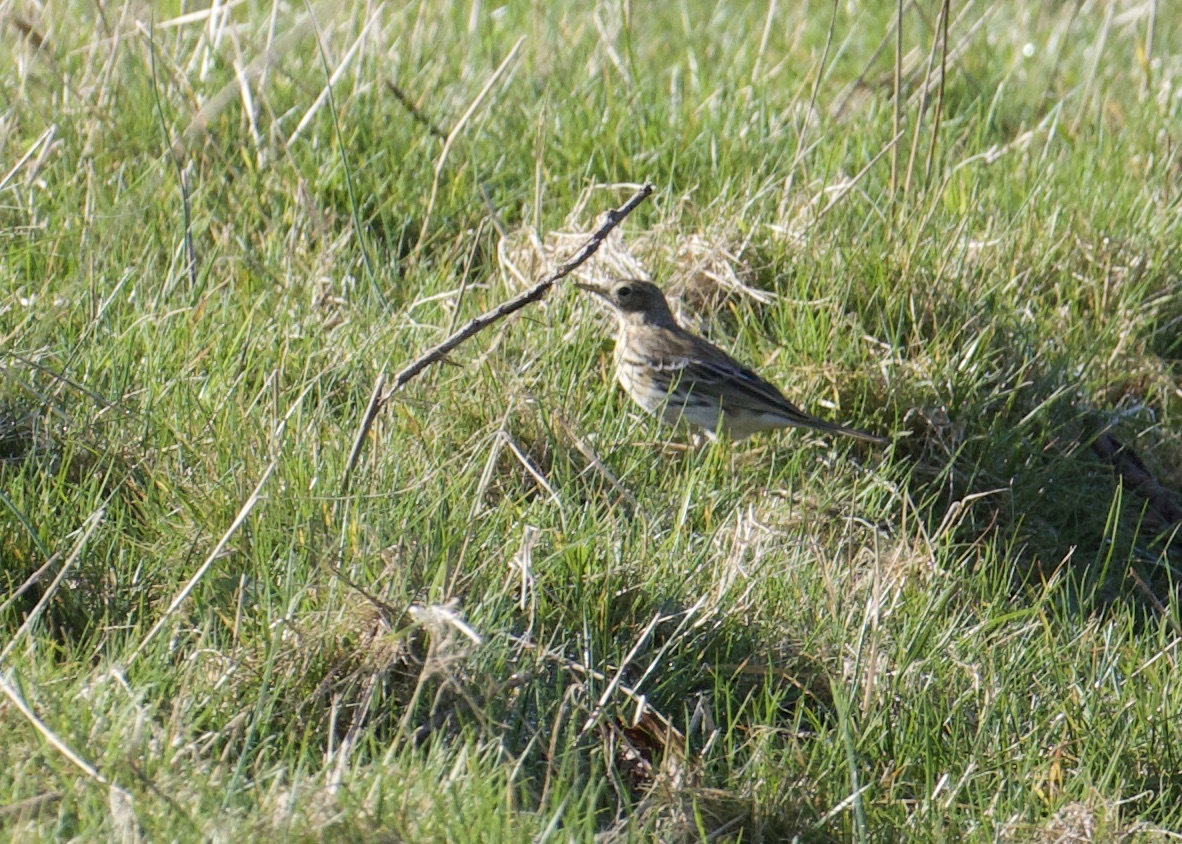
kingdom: Animalia
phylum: Chordata
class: Aves
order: Passeriformes
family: Motacillidae
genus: Anthus
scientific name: Anthus pratensis
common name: Meadow pipit
